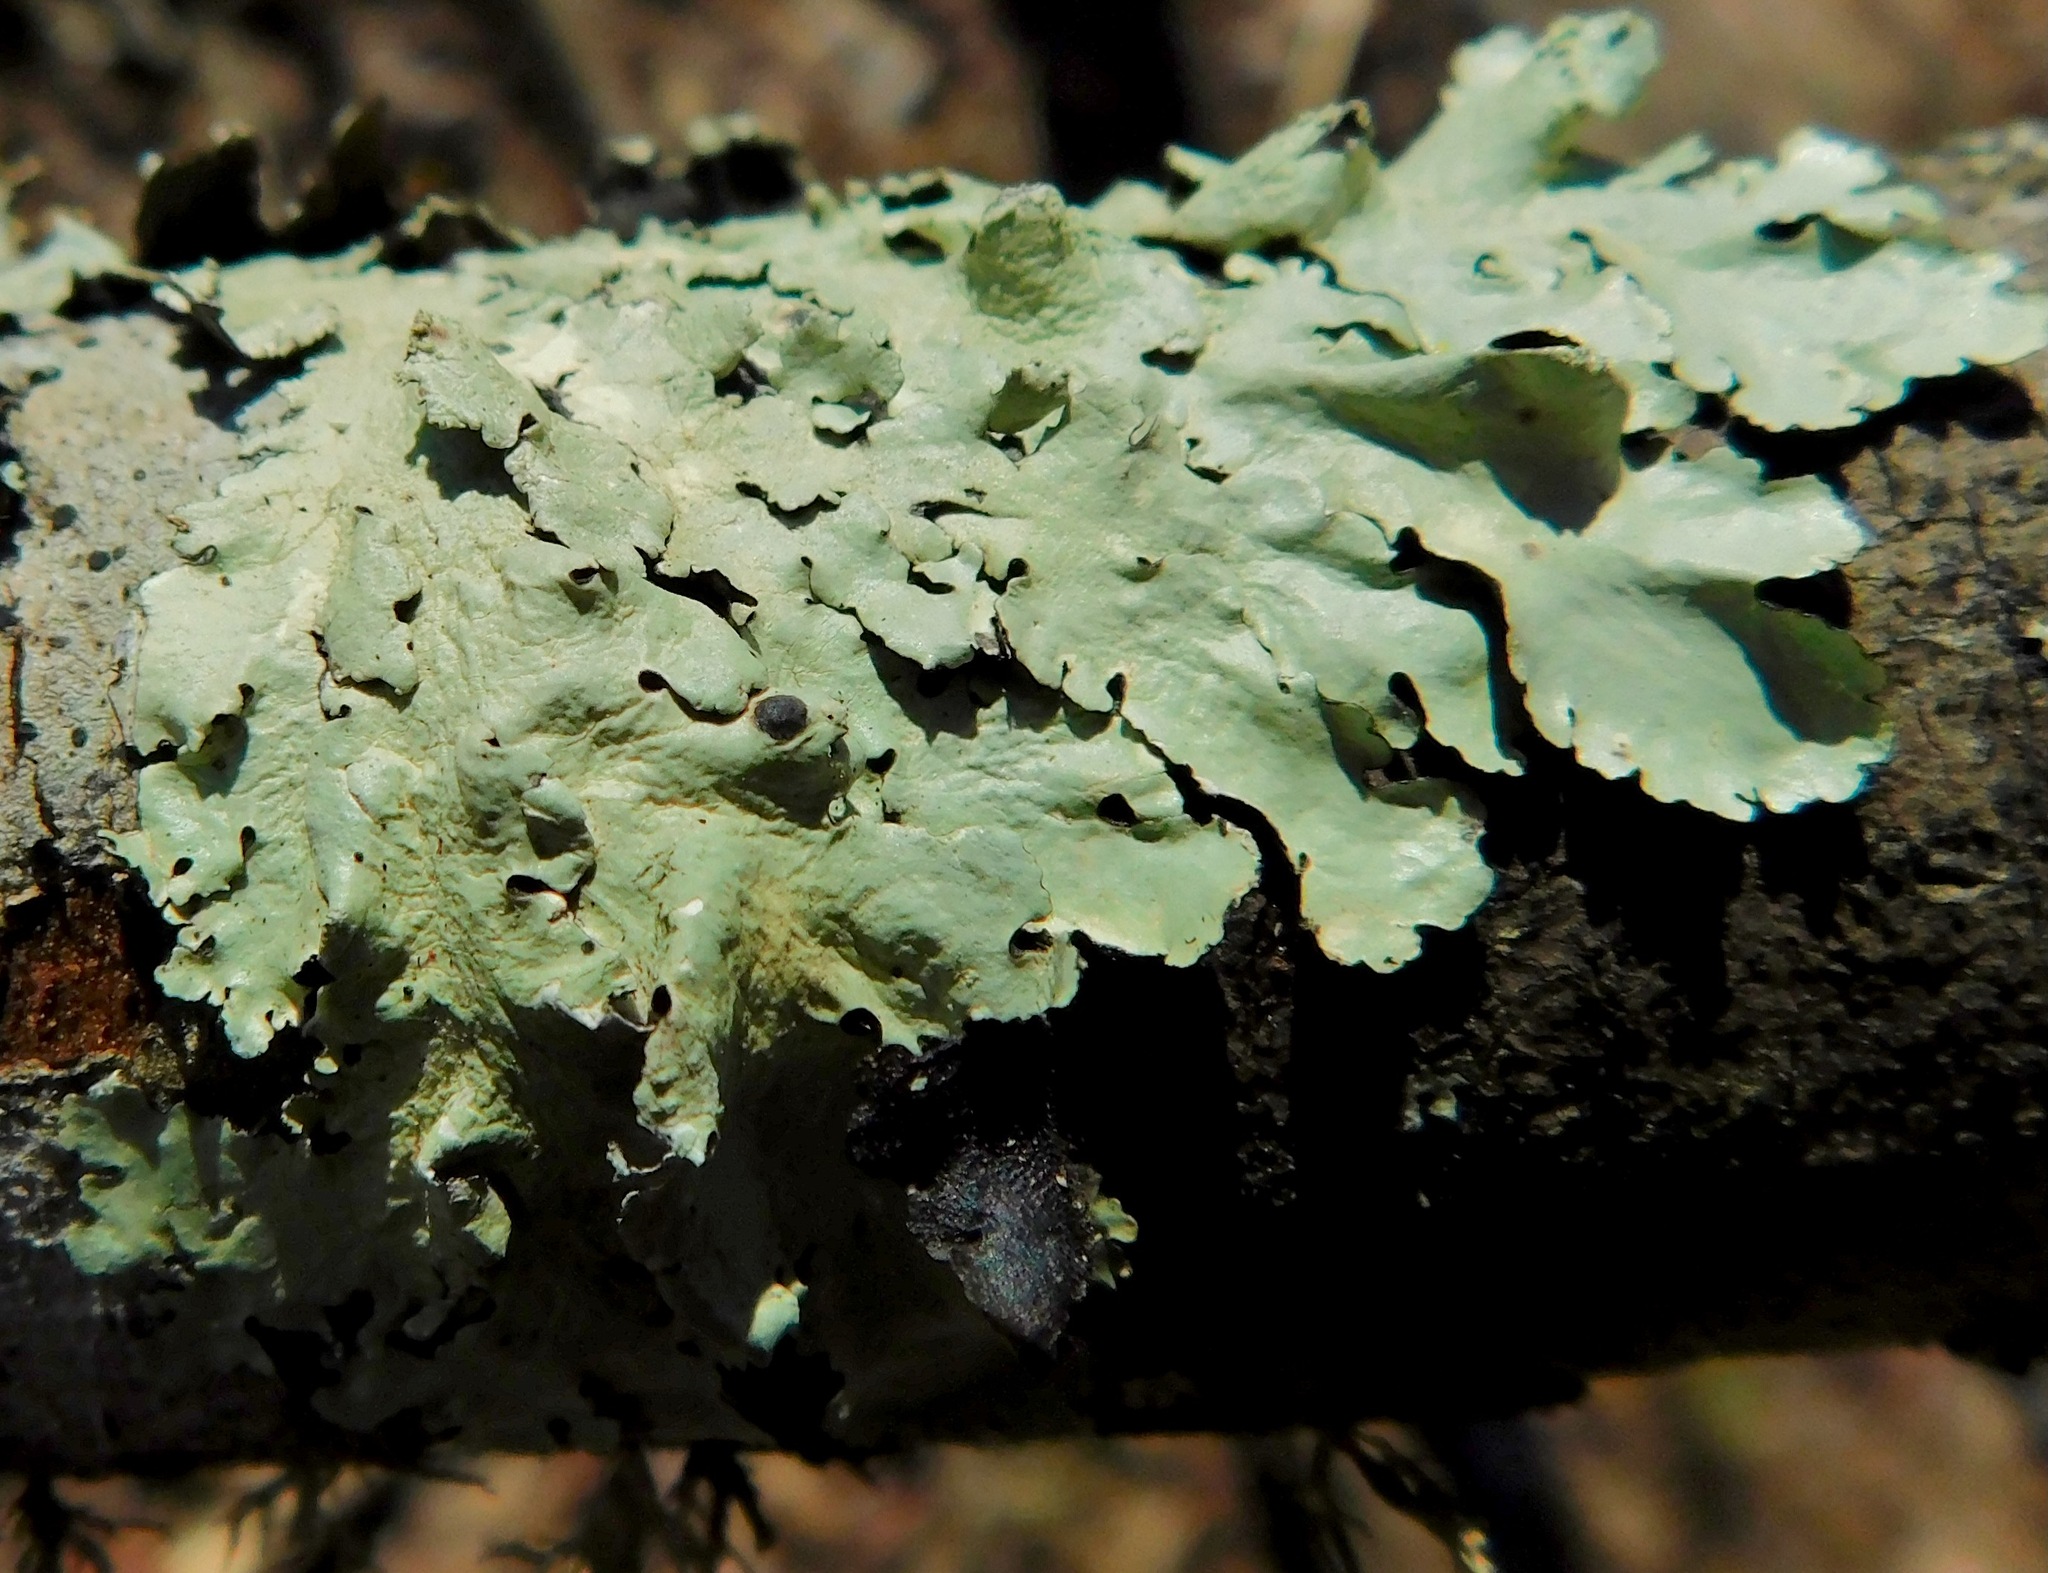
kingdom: Fungi
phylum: Ascomycota
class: Lecanoromycetes
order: Lecanorales
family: Parmeliaceae
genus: Flavoparmelia
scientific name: Flavoparmelia caperata
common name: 40-mile per hour lichen
